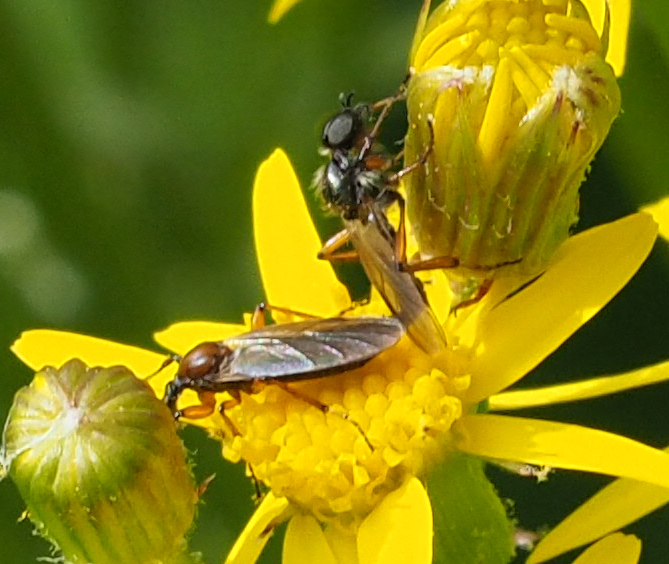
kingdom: Animalia
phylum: Arthropoda
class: Insecta
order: Diptera
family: Bibionidae
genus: Bibio
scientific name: Bibio
